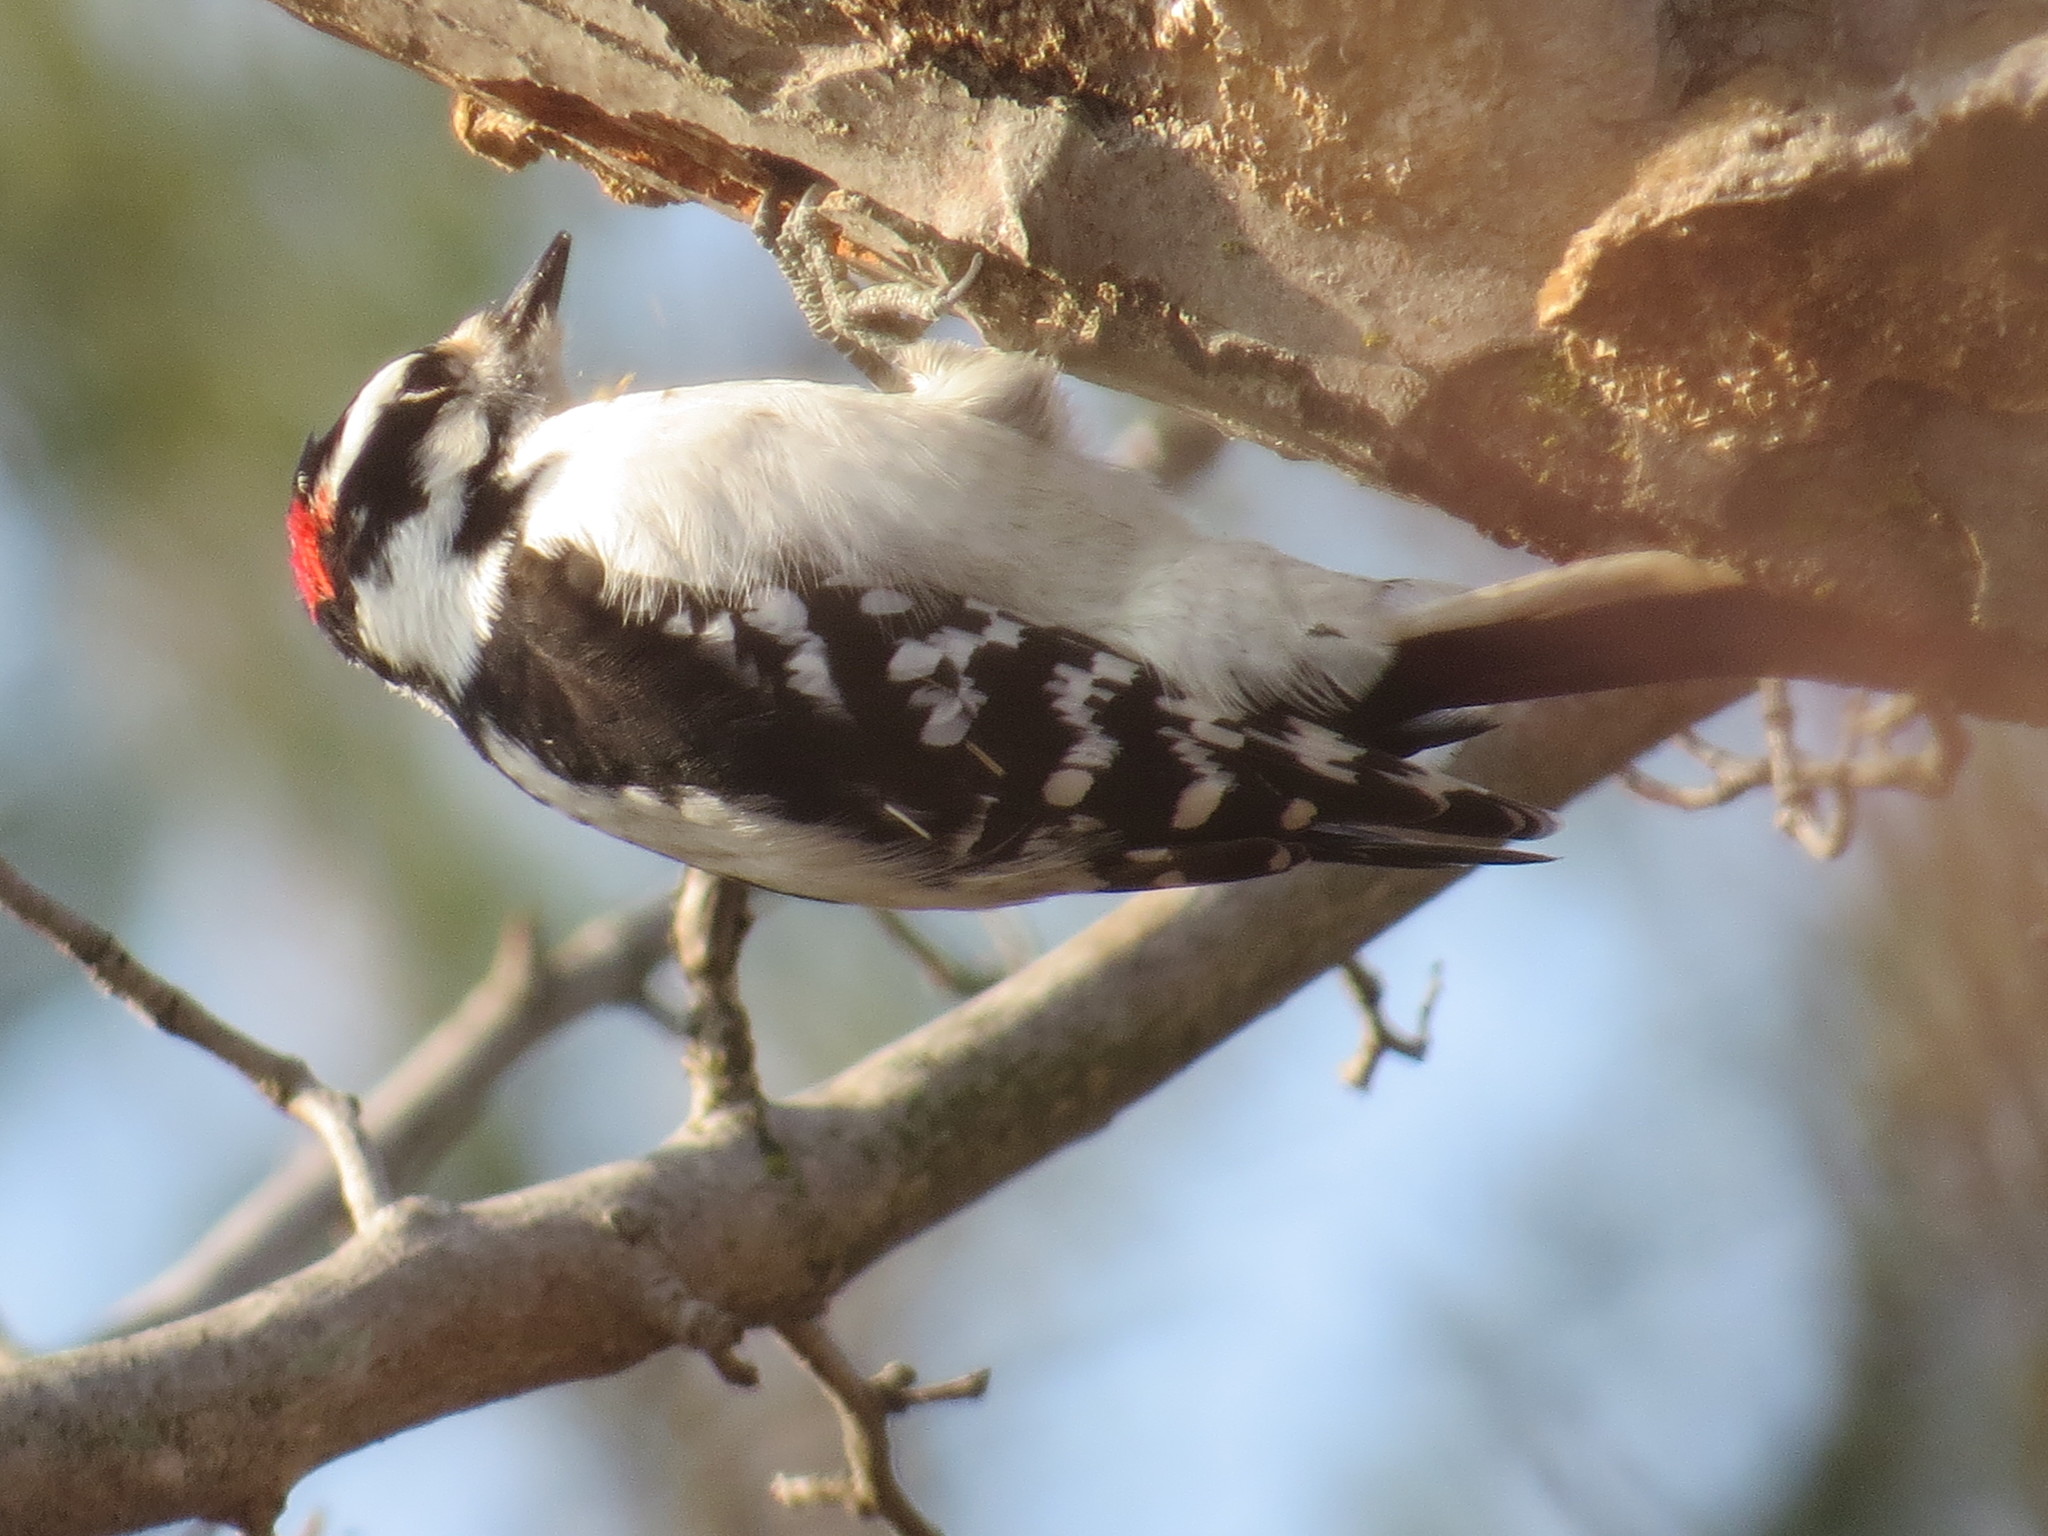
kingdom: Animalia
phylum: Chordata
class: Aves
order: Piciformes
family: Picidae
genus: Dryobates
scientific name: Dryobates pubescens
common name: Downy woodpecker
